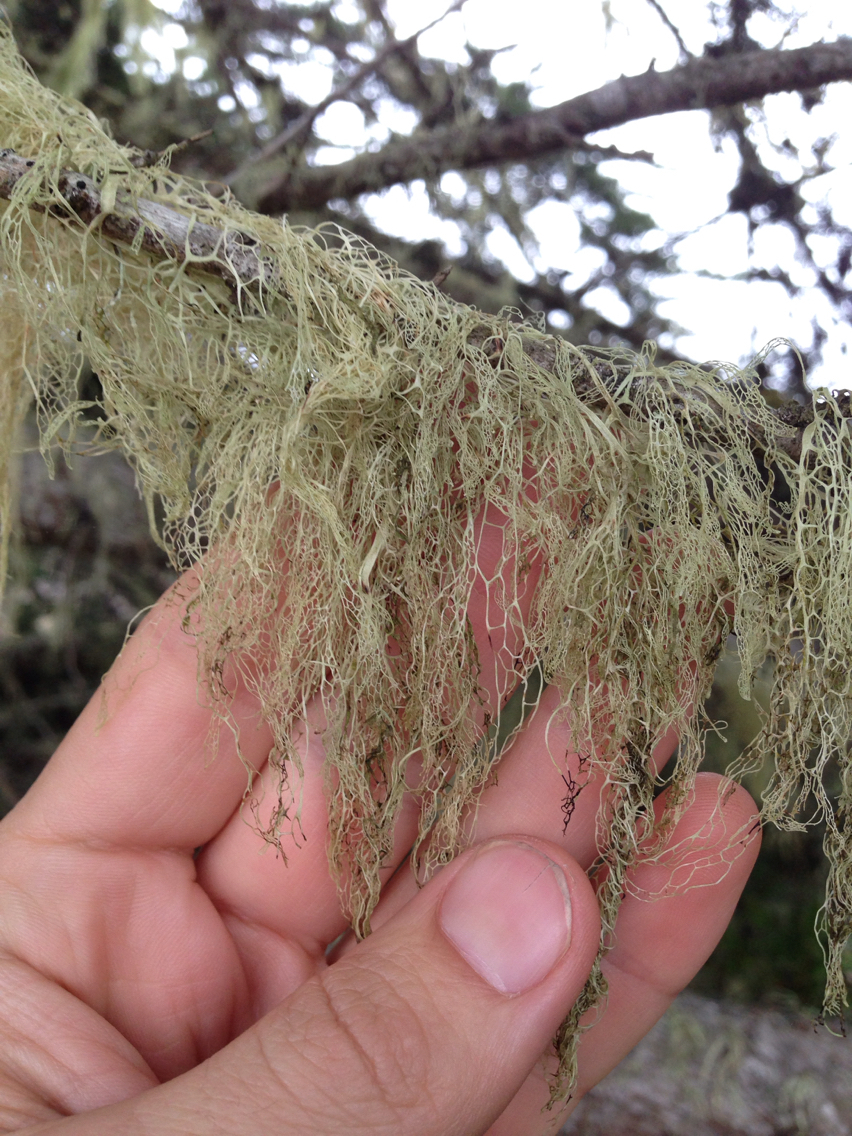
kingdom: Fungi
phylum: Ascomycota
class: Lecanoromycetes
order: Lecanorales
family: Ramalinaceae
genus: Ramalina
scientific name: Ramalina menziesii
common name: Lace lichen
